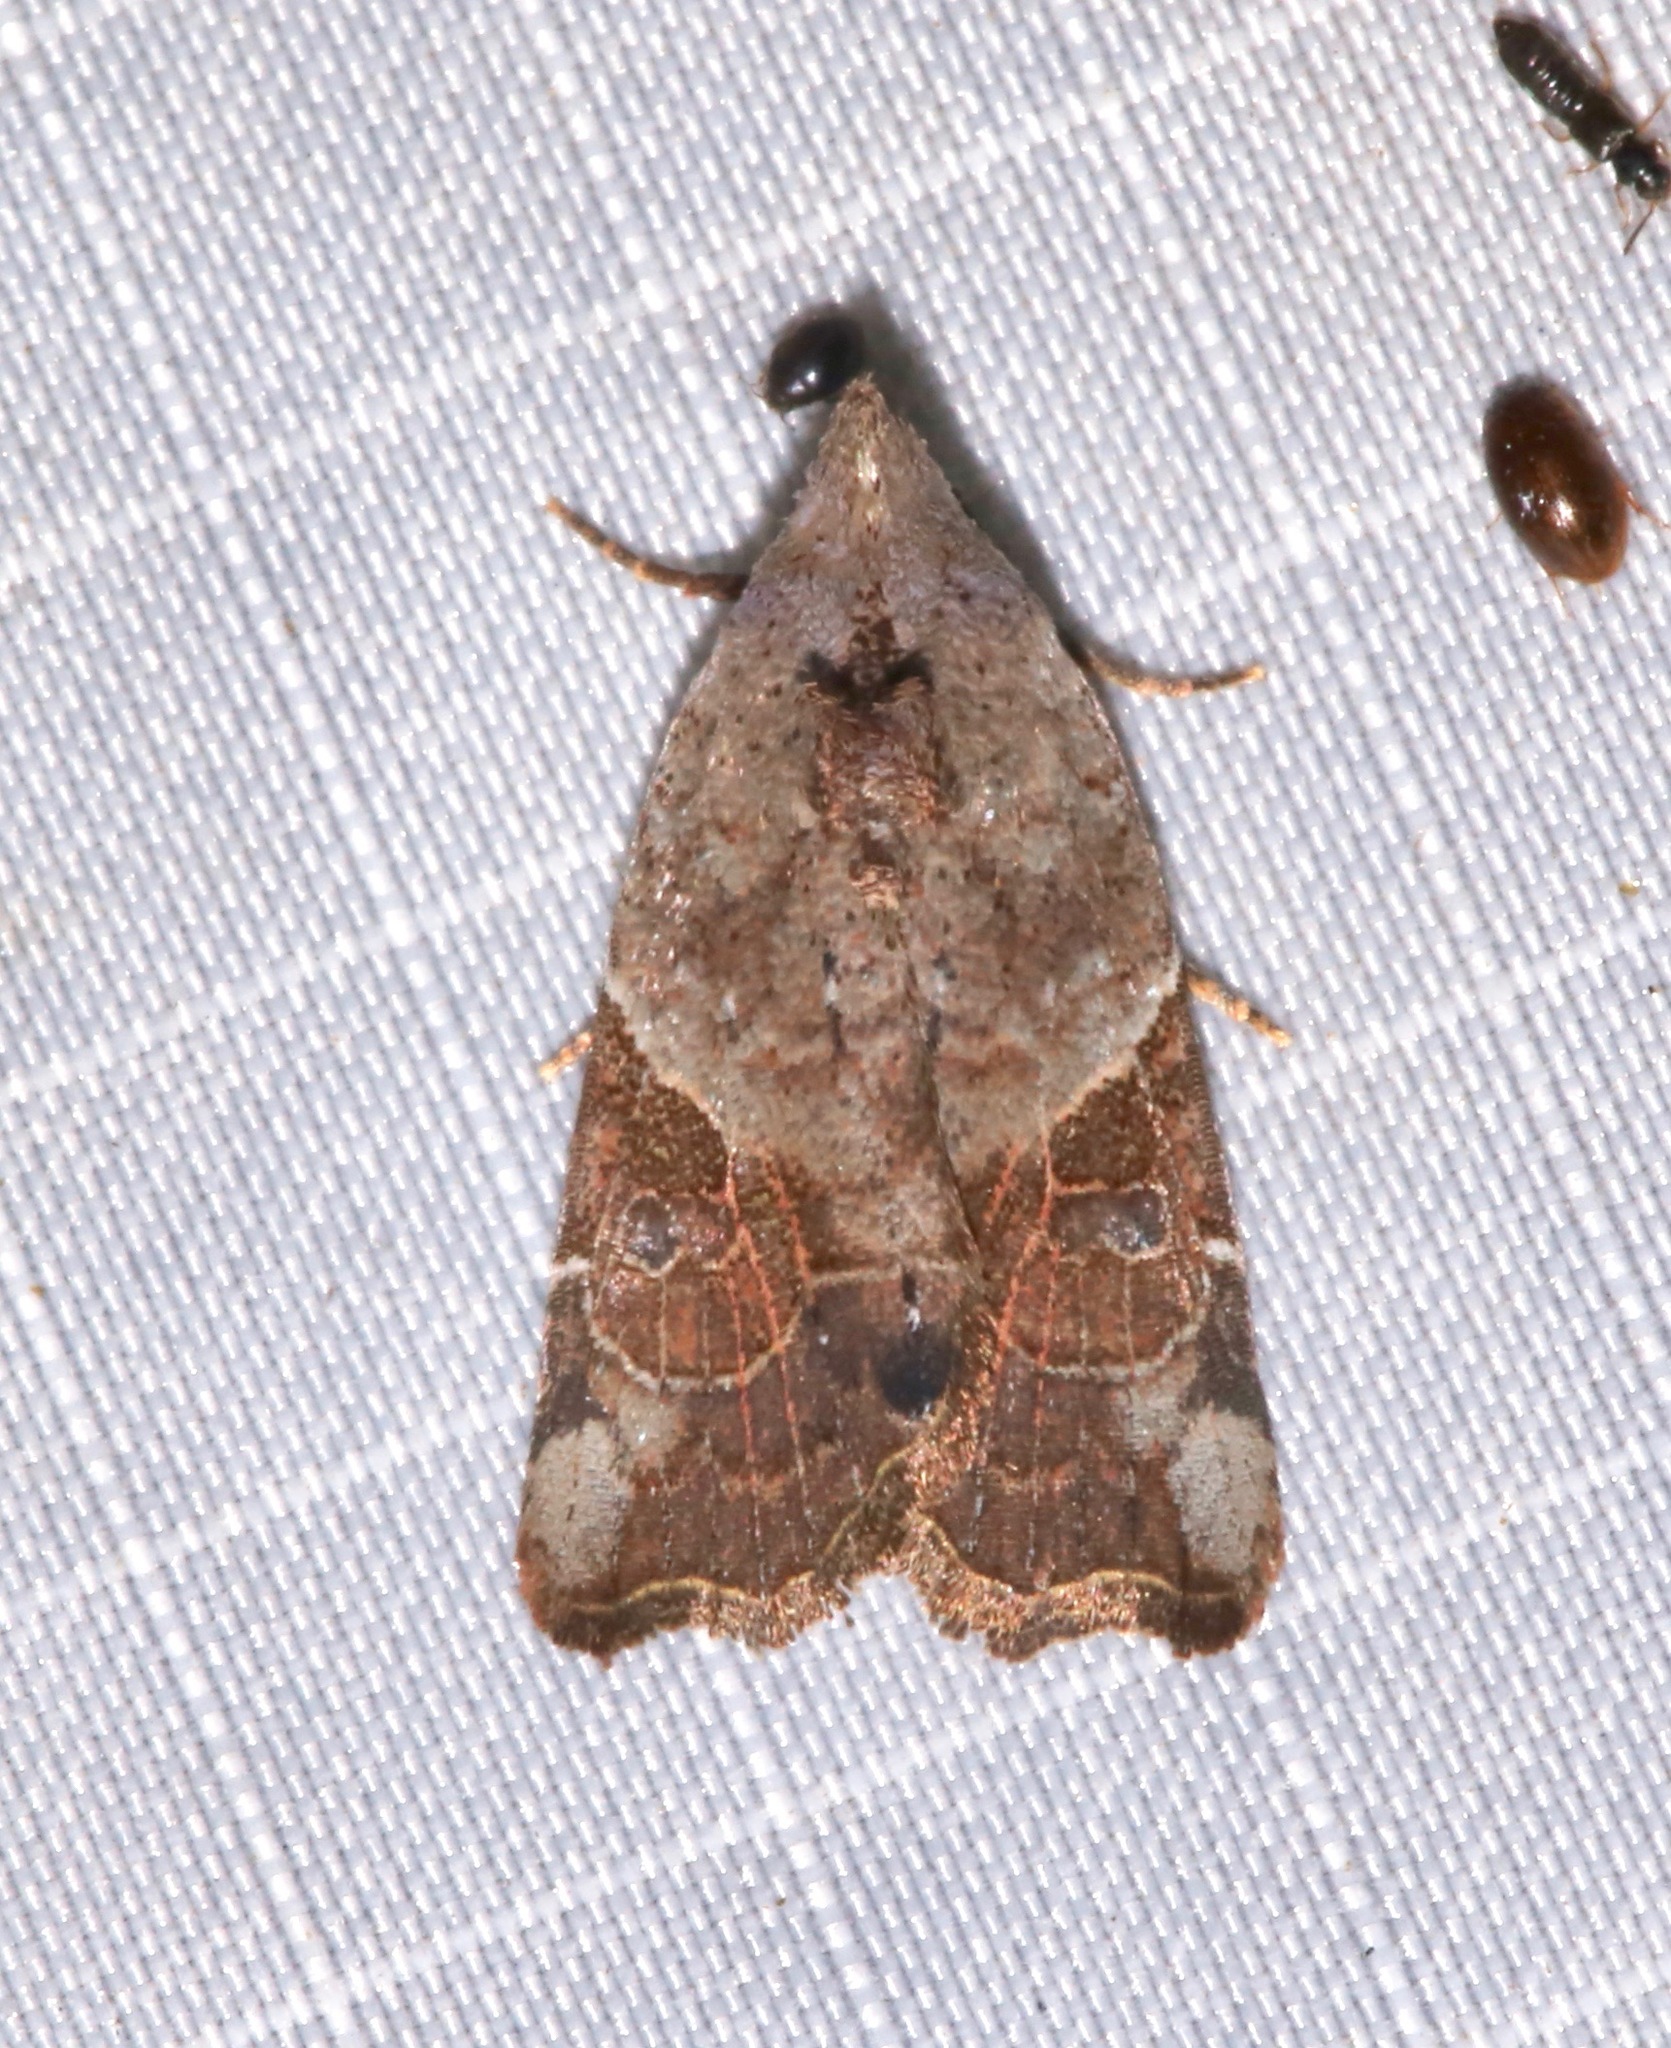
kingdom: Animalia
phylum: Arthropoda
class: Insecta
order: Lepidoptera
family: Noctuidae
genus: Gonodes
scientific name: Gonodes liquida
